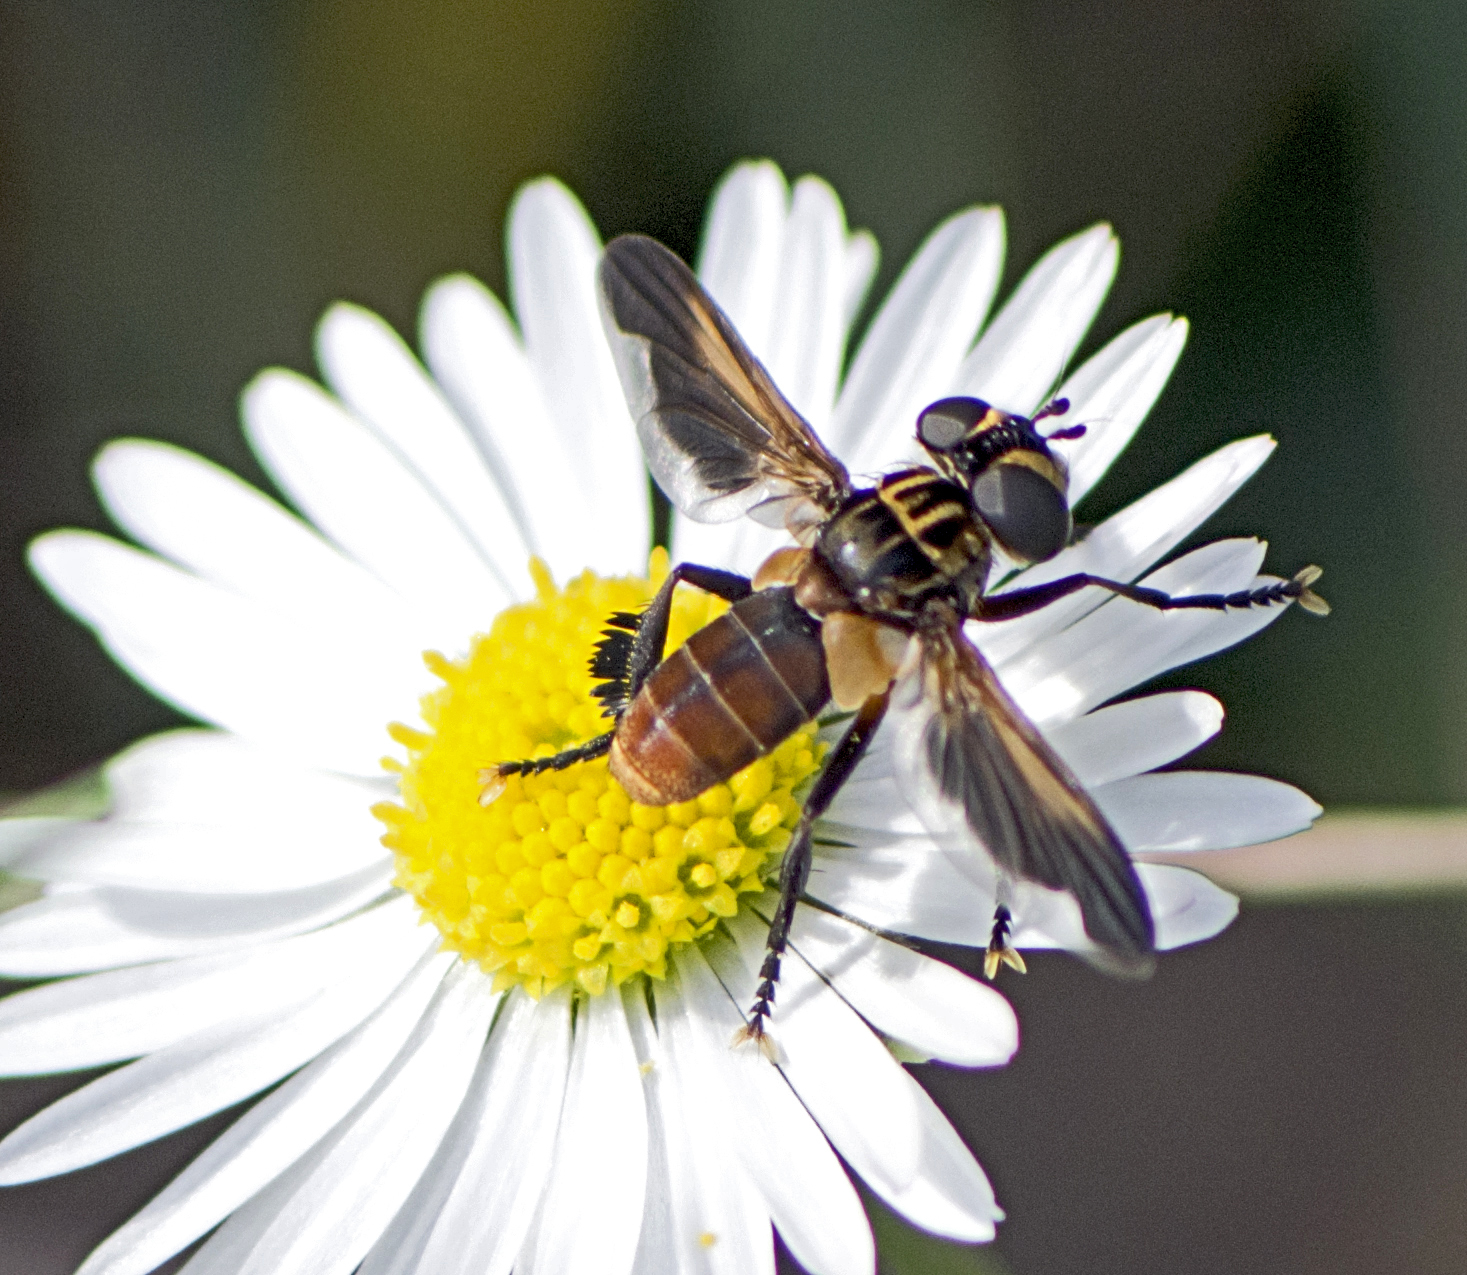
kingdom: Animalia
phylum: Arthropoda
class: Insecta
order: Diptera
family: Tachinidae
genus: Trichopoda
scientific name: Trichopoda pictipennis
